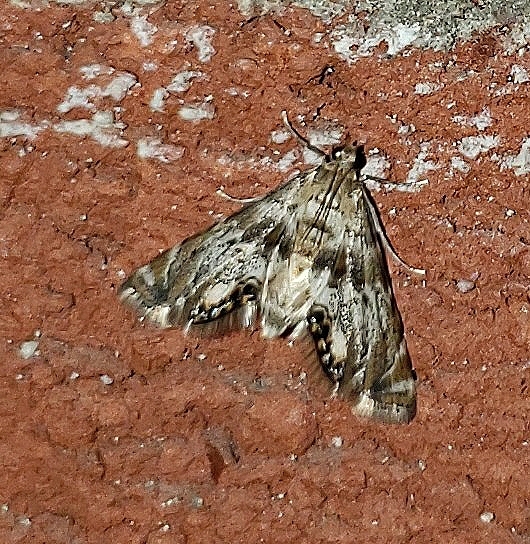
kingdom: Animalia
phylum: Arthropoda
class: Insecta
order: Lepidoptera
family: Crambidae
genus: Petrophila
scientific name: Petrophila fulicalis
